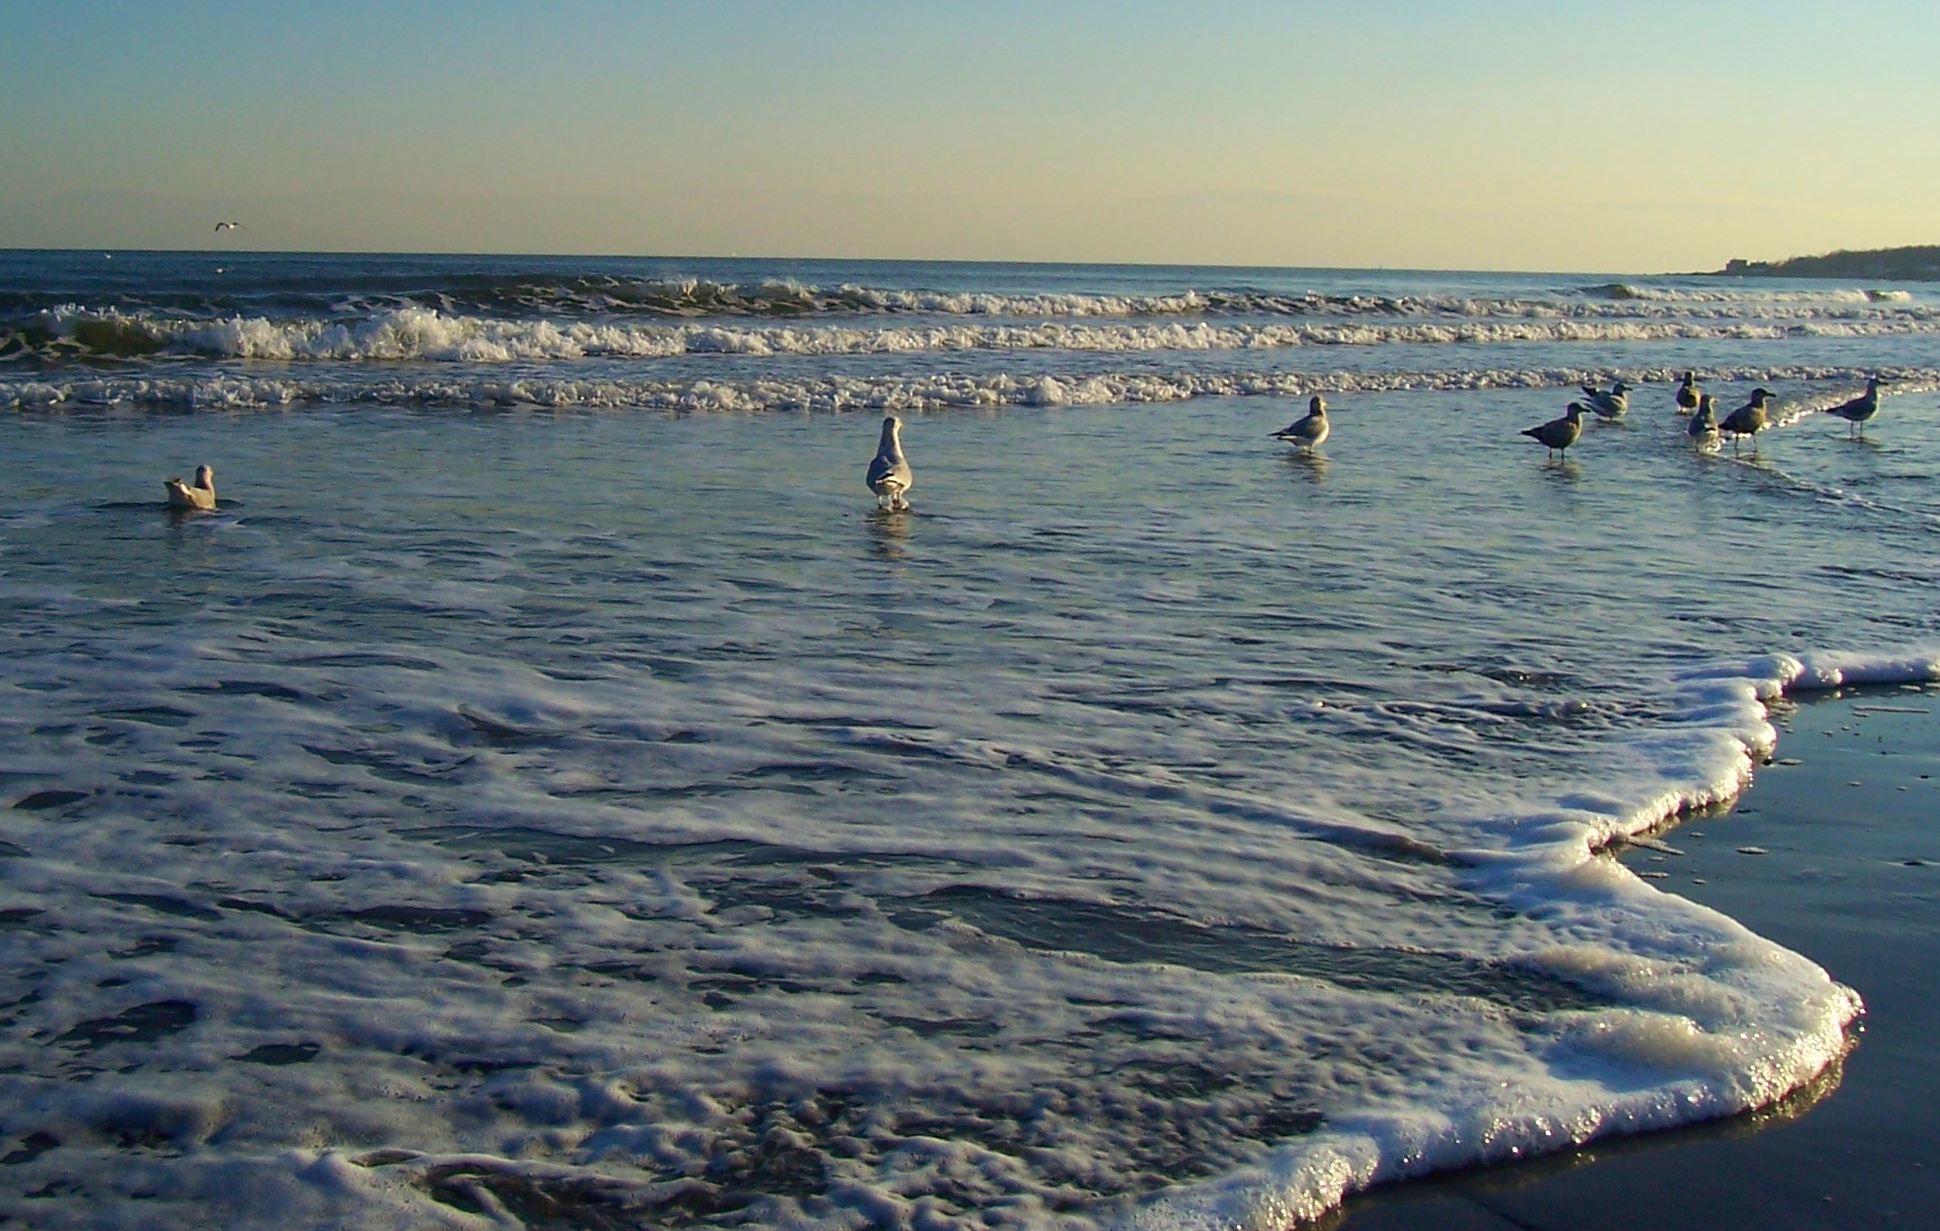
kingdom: Animalia
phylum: Chordata
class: Aves
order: Charadriiformes
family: Laridae
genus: Larus
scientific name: Larus argentatus
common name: Herring gull
